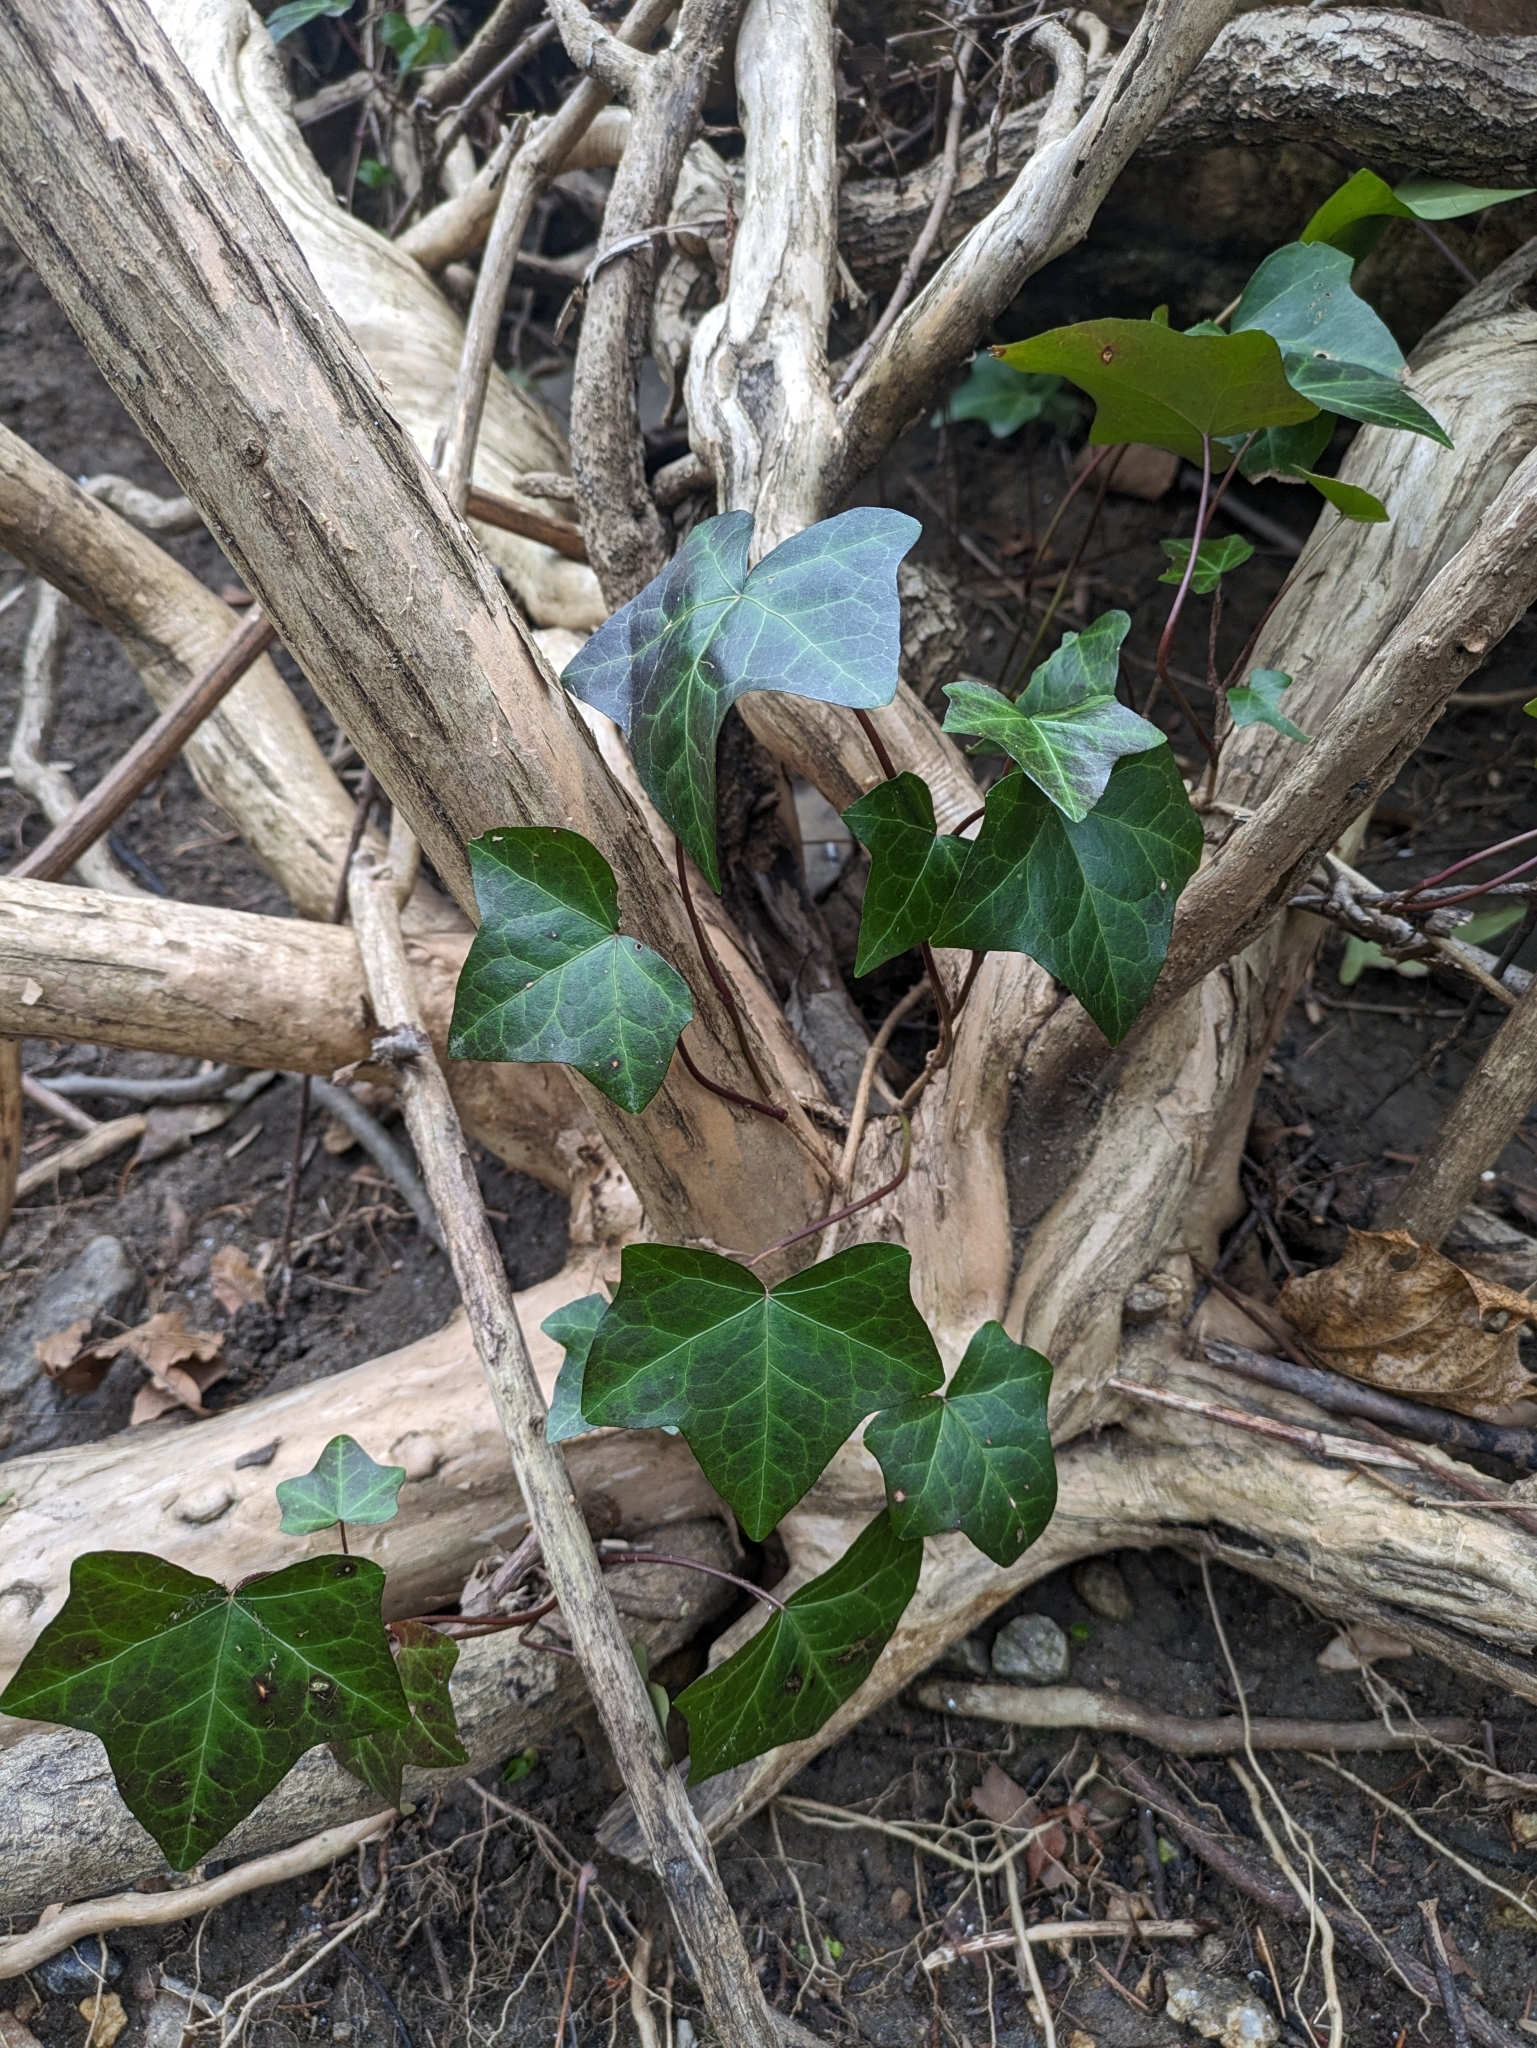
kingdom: Plantae
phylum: Tracheophyta
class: Magnoliopsida
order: Apiales
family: Araliaceae
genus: Hedera
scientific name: Hedera helix
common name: Ivy
